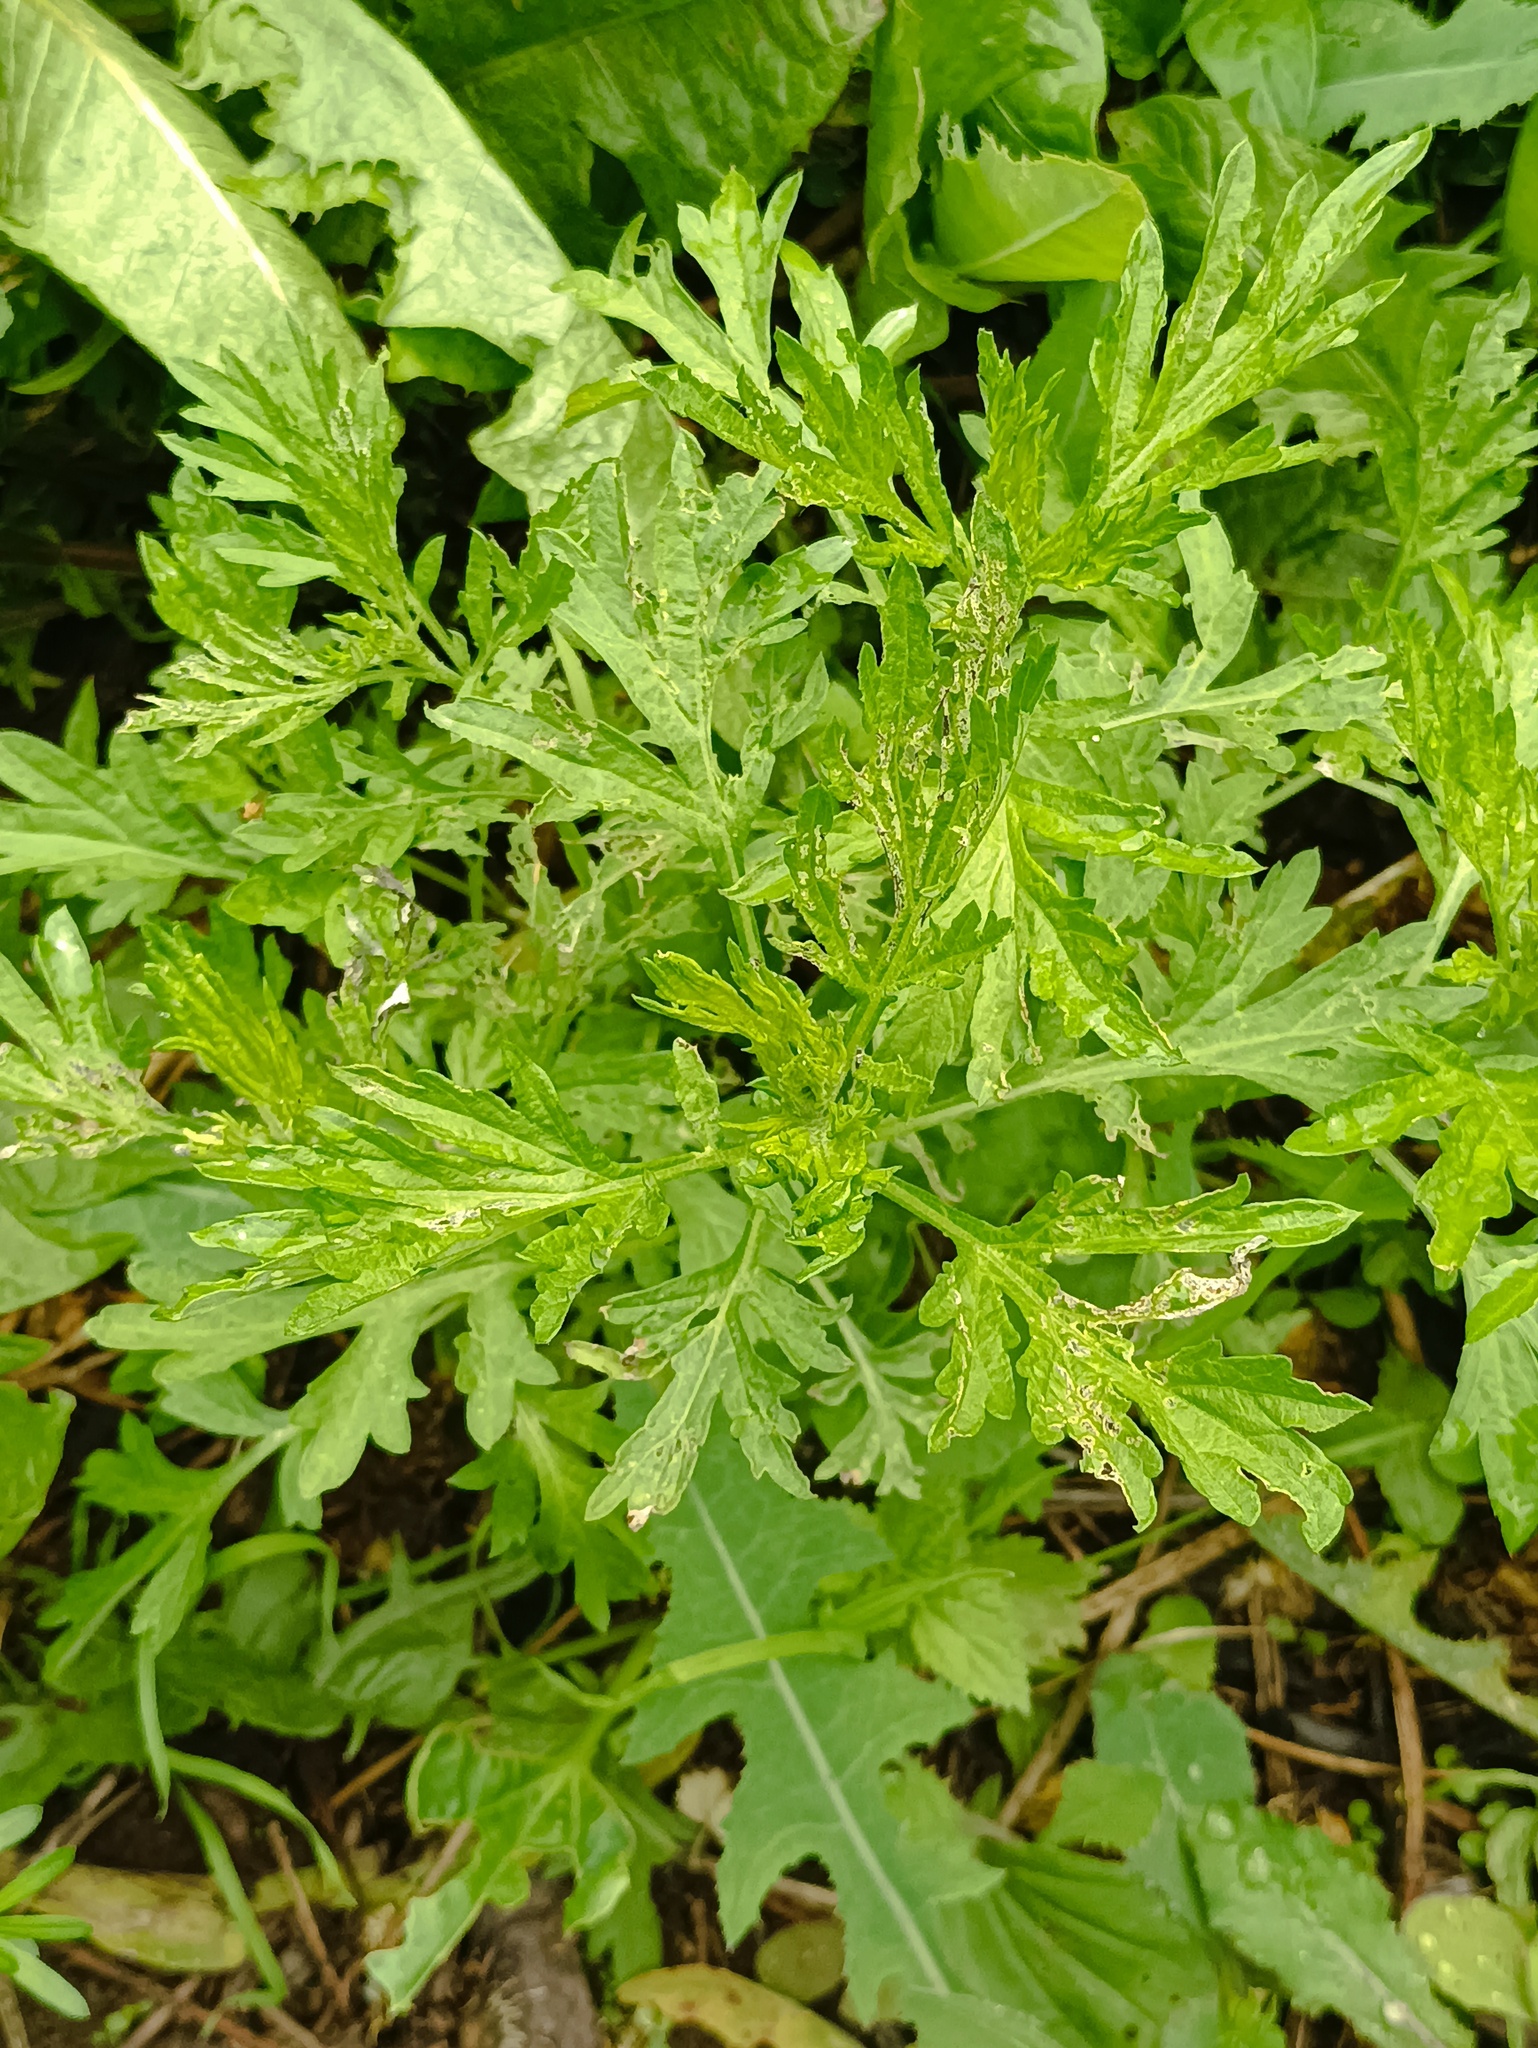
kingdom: Plantae
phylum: Tracheophyta
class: Magnoliopsida
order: Asterales
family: Asteraceae
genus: Artemisia
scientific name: Artemisia vulgaris
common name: Mugwort
